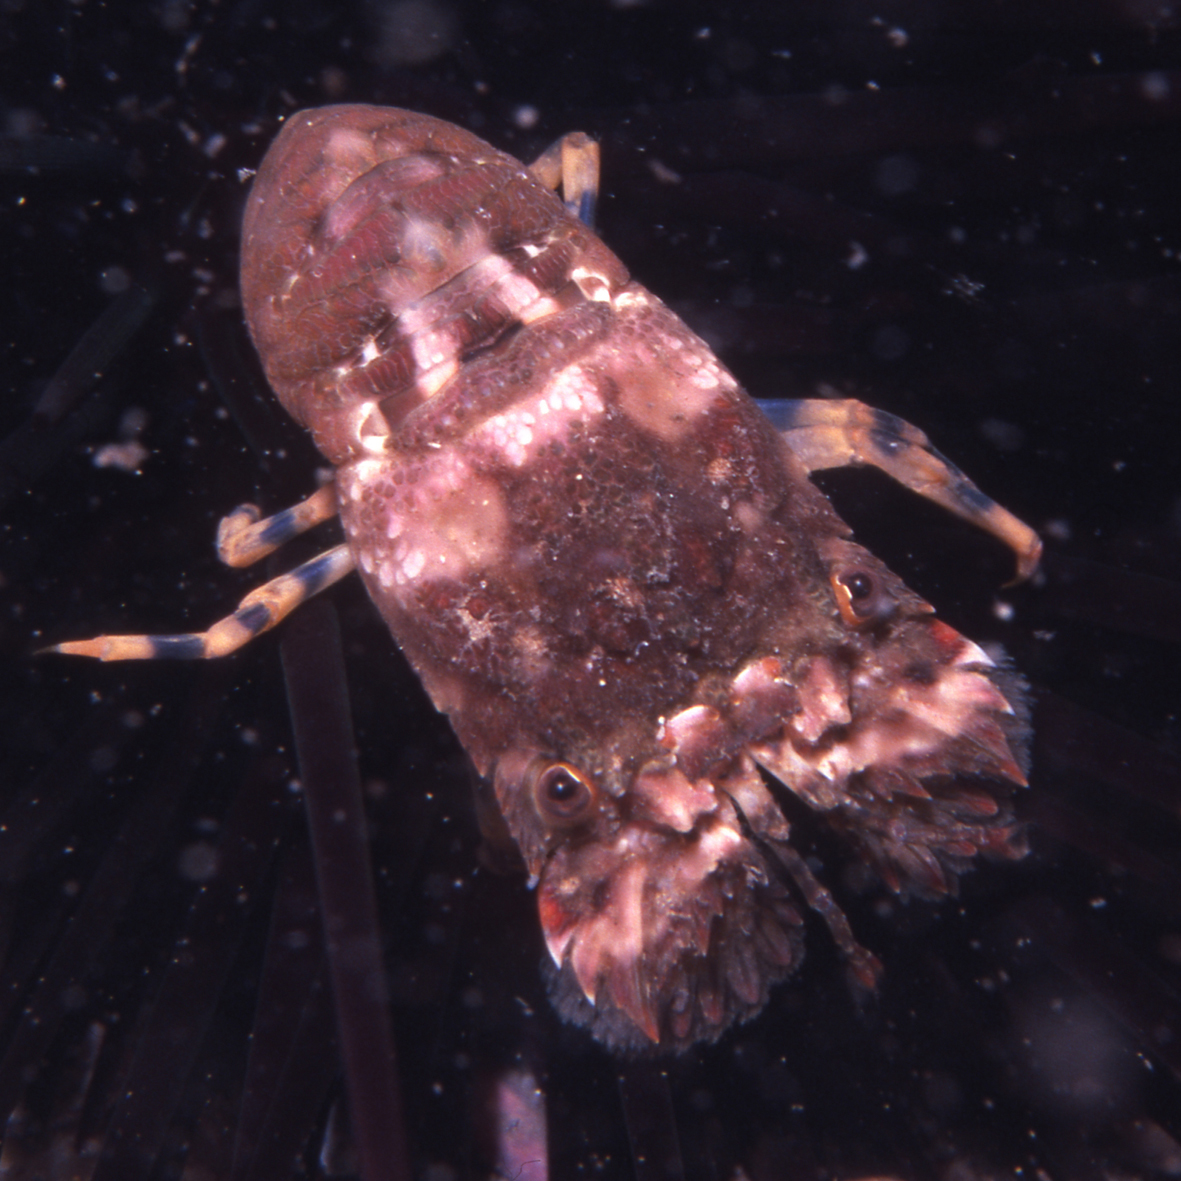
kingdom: Animalia
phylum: Arthropoda
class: Malacostraca
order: Decapoda
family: Scyllaridae
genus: Crenarctus
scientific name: Crenarctus crenatus
